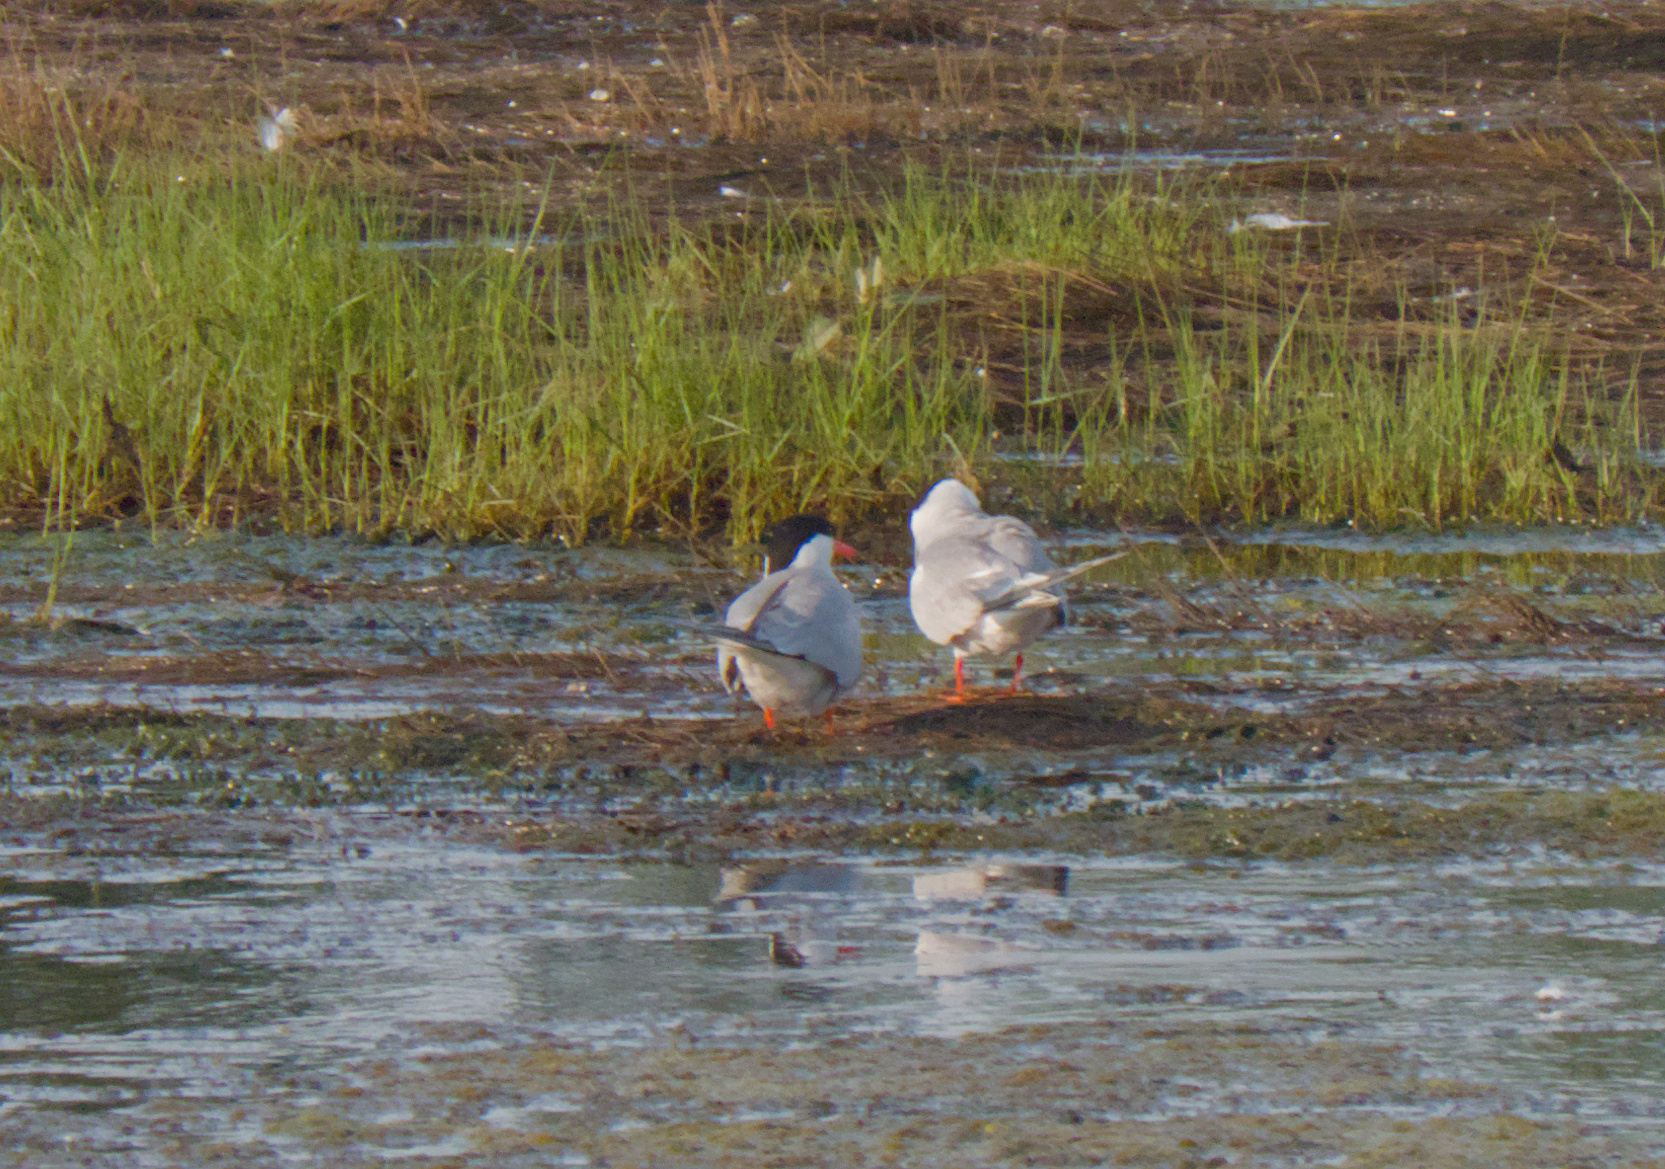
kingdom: Animalia
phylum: Chordata
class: Aves
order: Charadriiformes
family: Laridae
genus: Sterna
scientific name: Sterna hirundo
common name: Common tern
